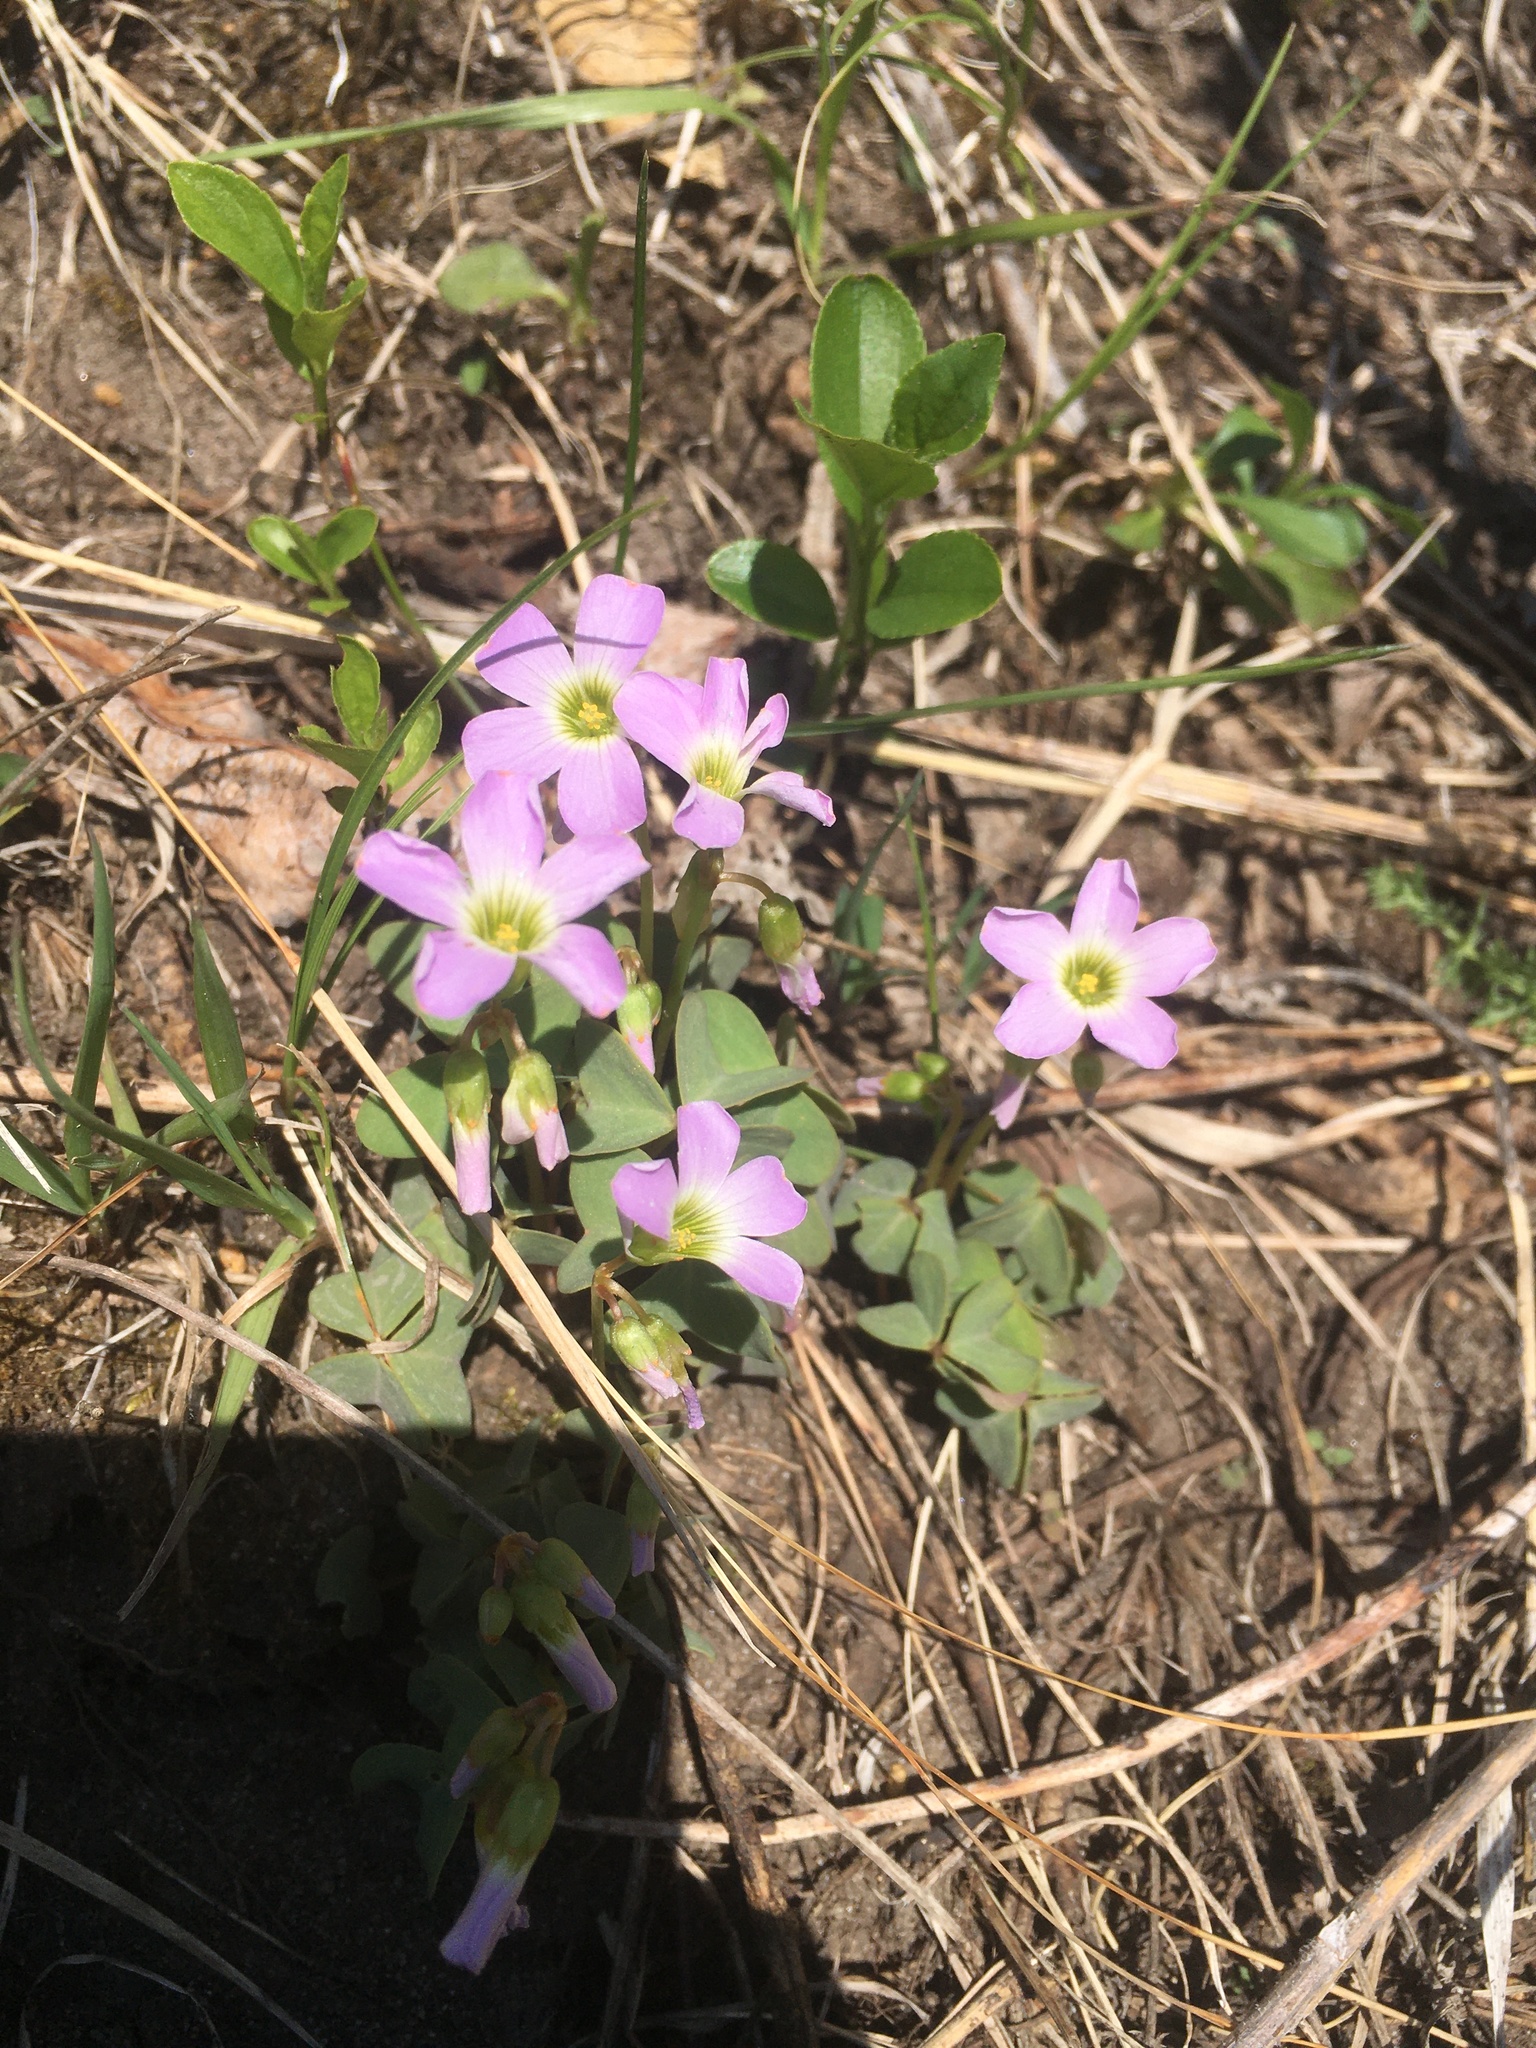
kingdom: Plantae
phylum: Tracheophyta
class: Magnoliopsida
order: Oxalidales
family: Oxalidaceae
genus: Oxalis
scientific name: Oxalis violacea
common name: Violet wood-sorrel
